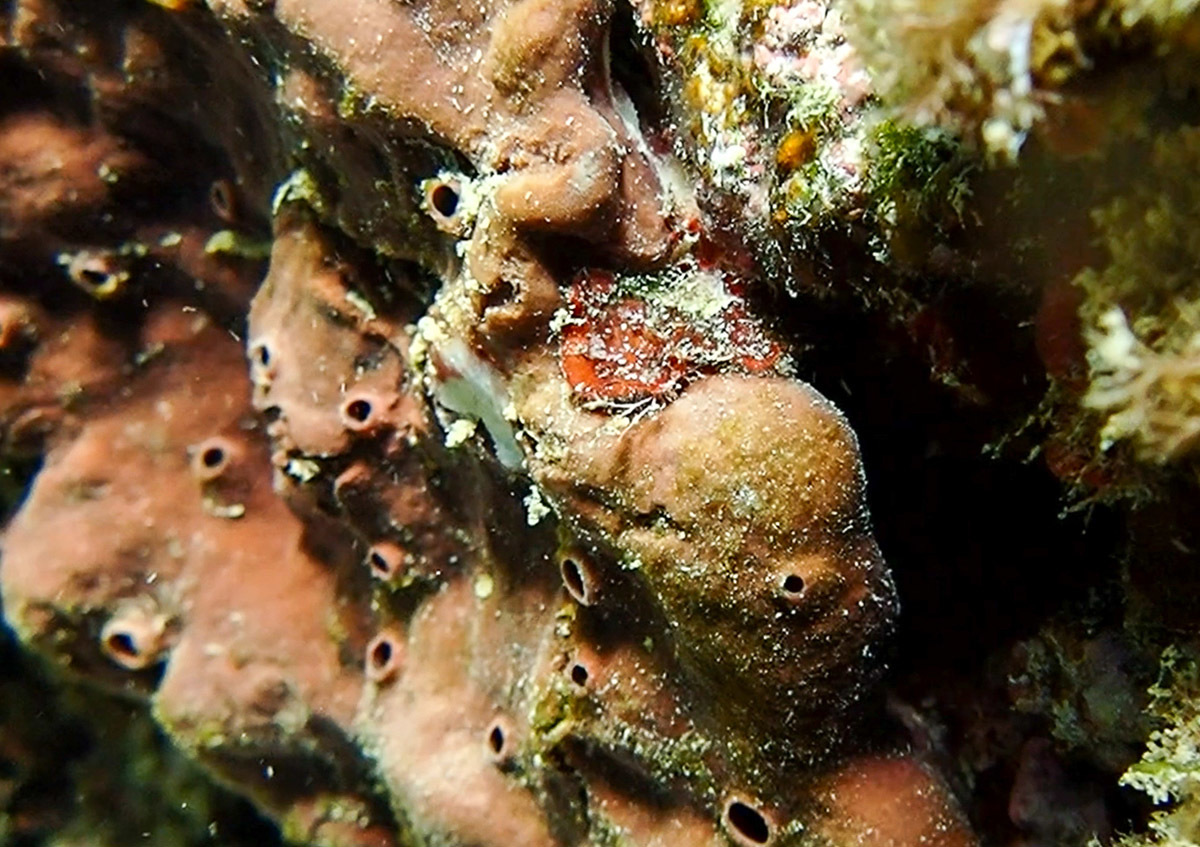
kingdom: Animalia
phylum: Porifera
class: Demospongiae
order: Haplosclerida
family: Petrosiidae
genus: Petrosia
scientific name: Petrosia ficiformis
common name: Stony sponge
